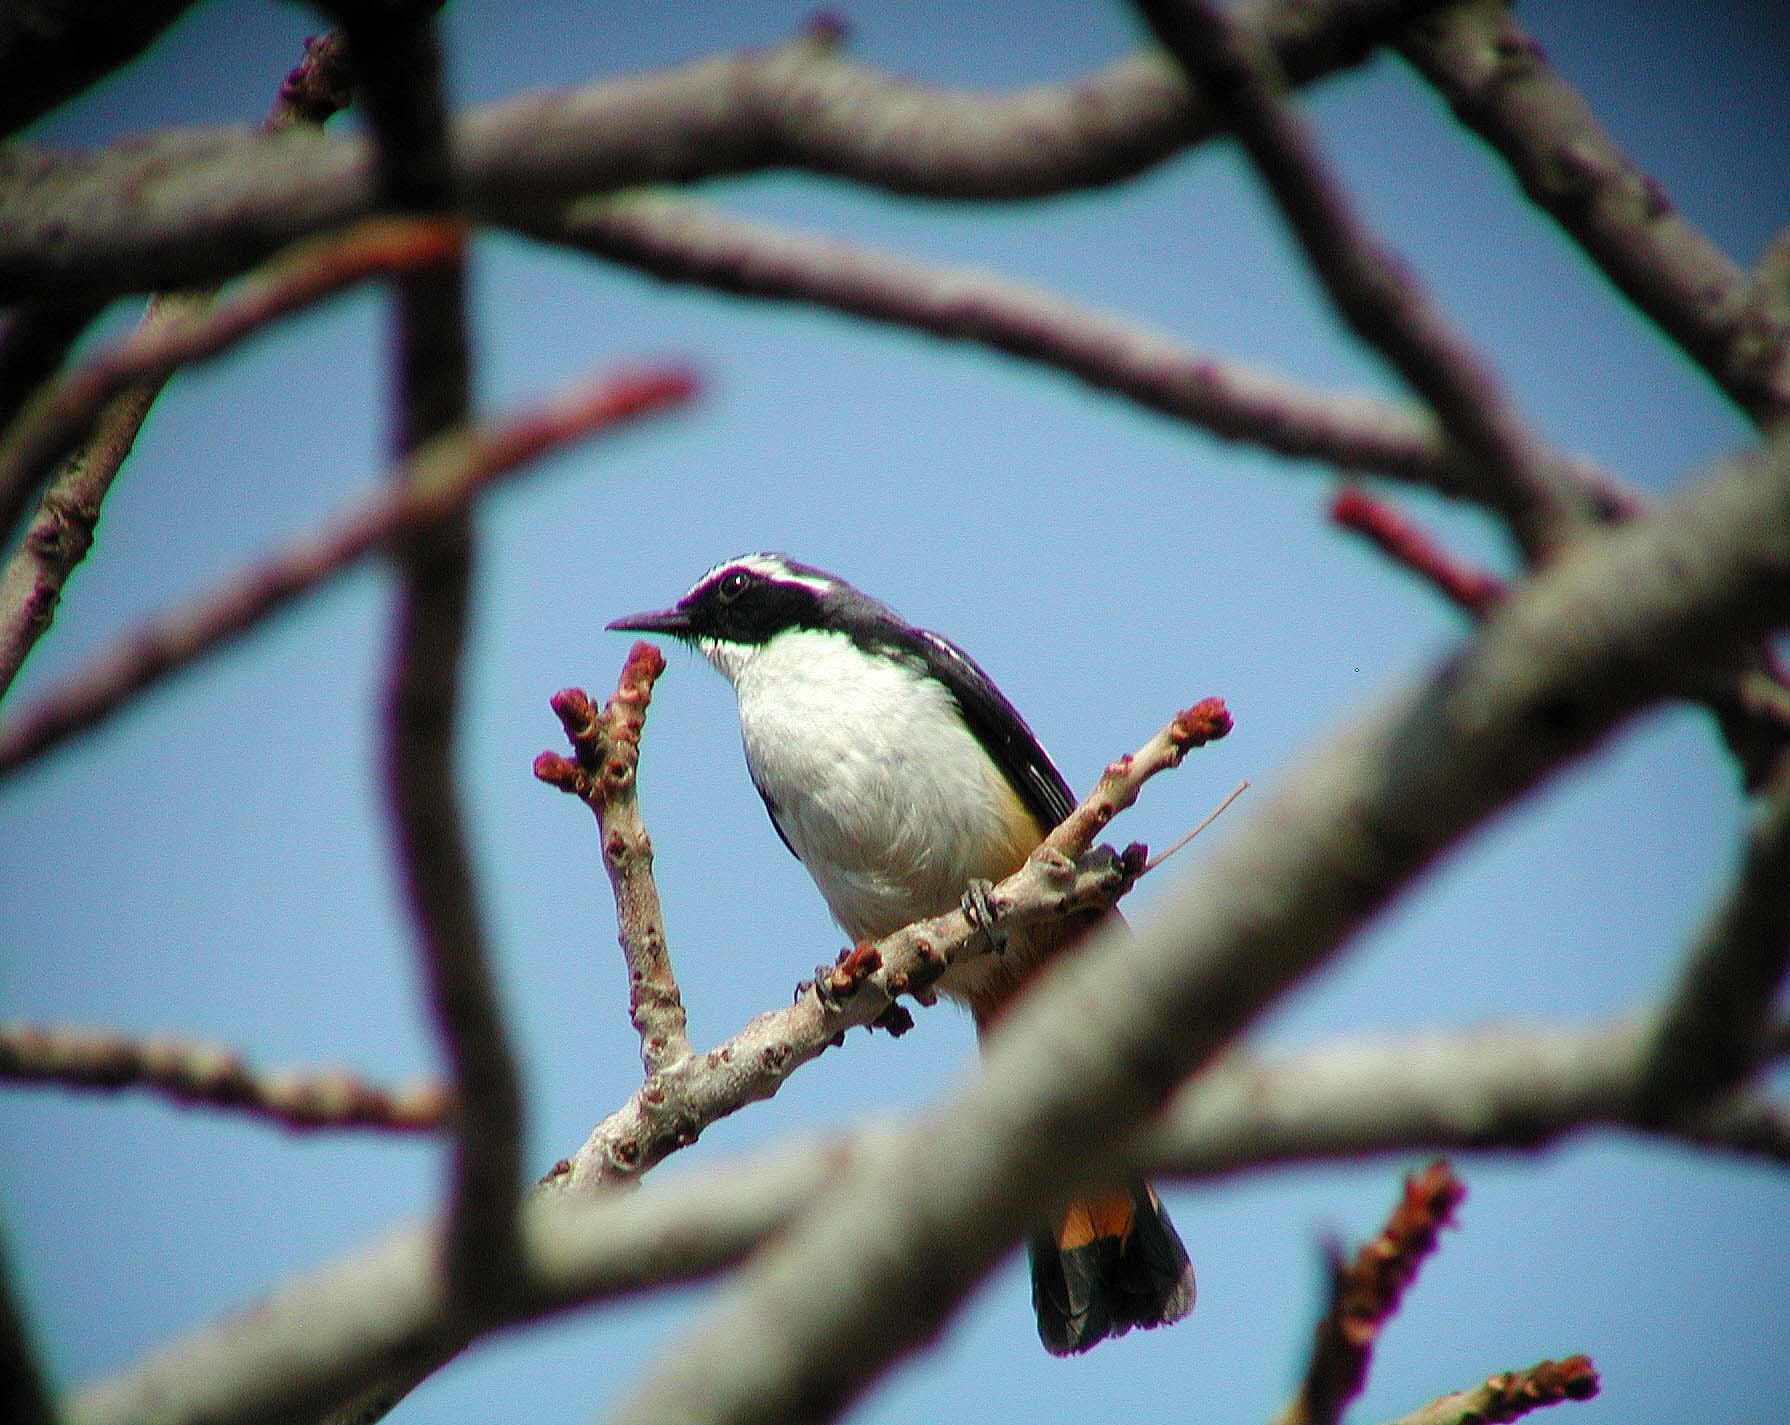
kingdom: Animalia
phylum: Chordata
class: Aves
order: Passeriformes
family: Muscicapidae
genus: Cossypha
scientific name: Cossypha humeralis
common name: White-throated robin-chat
